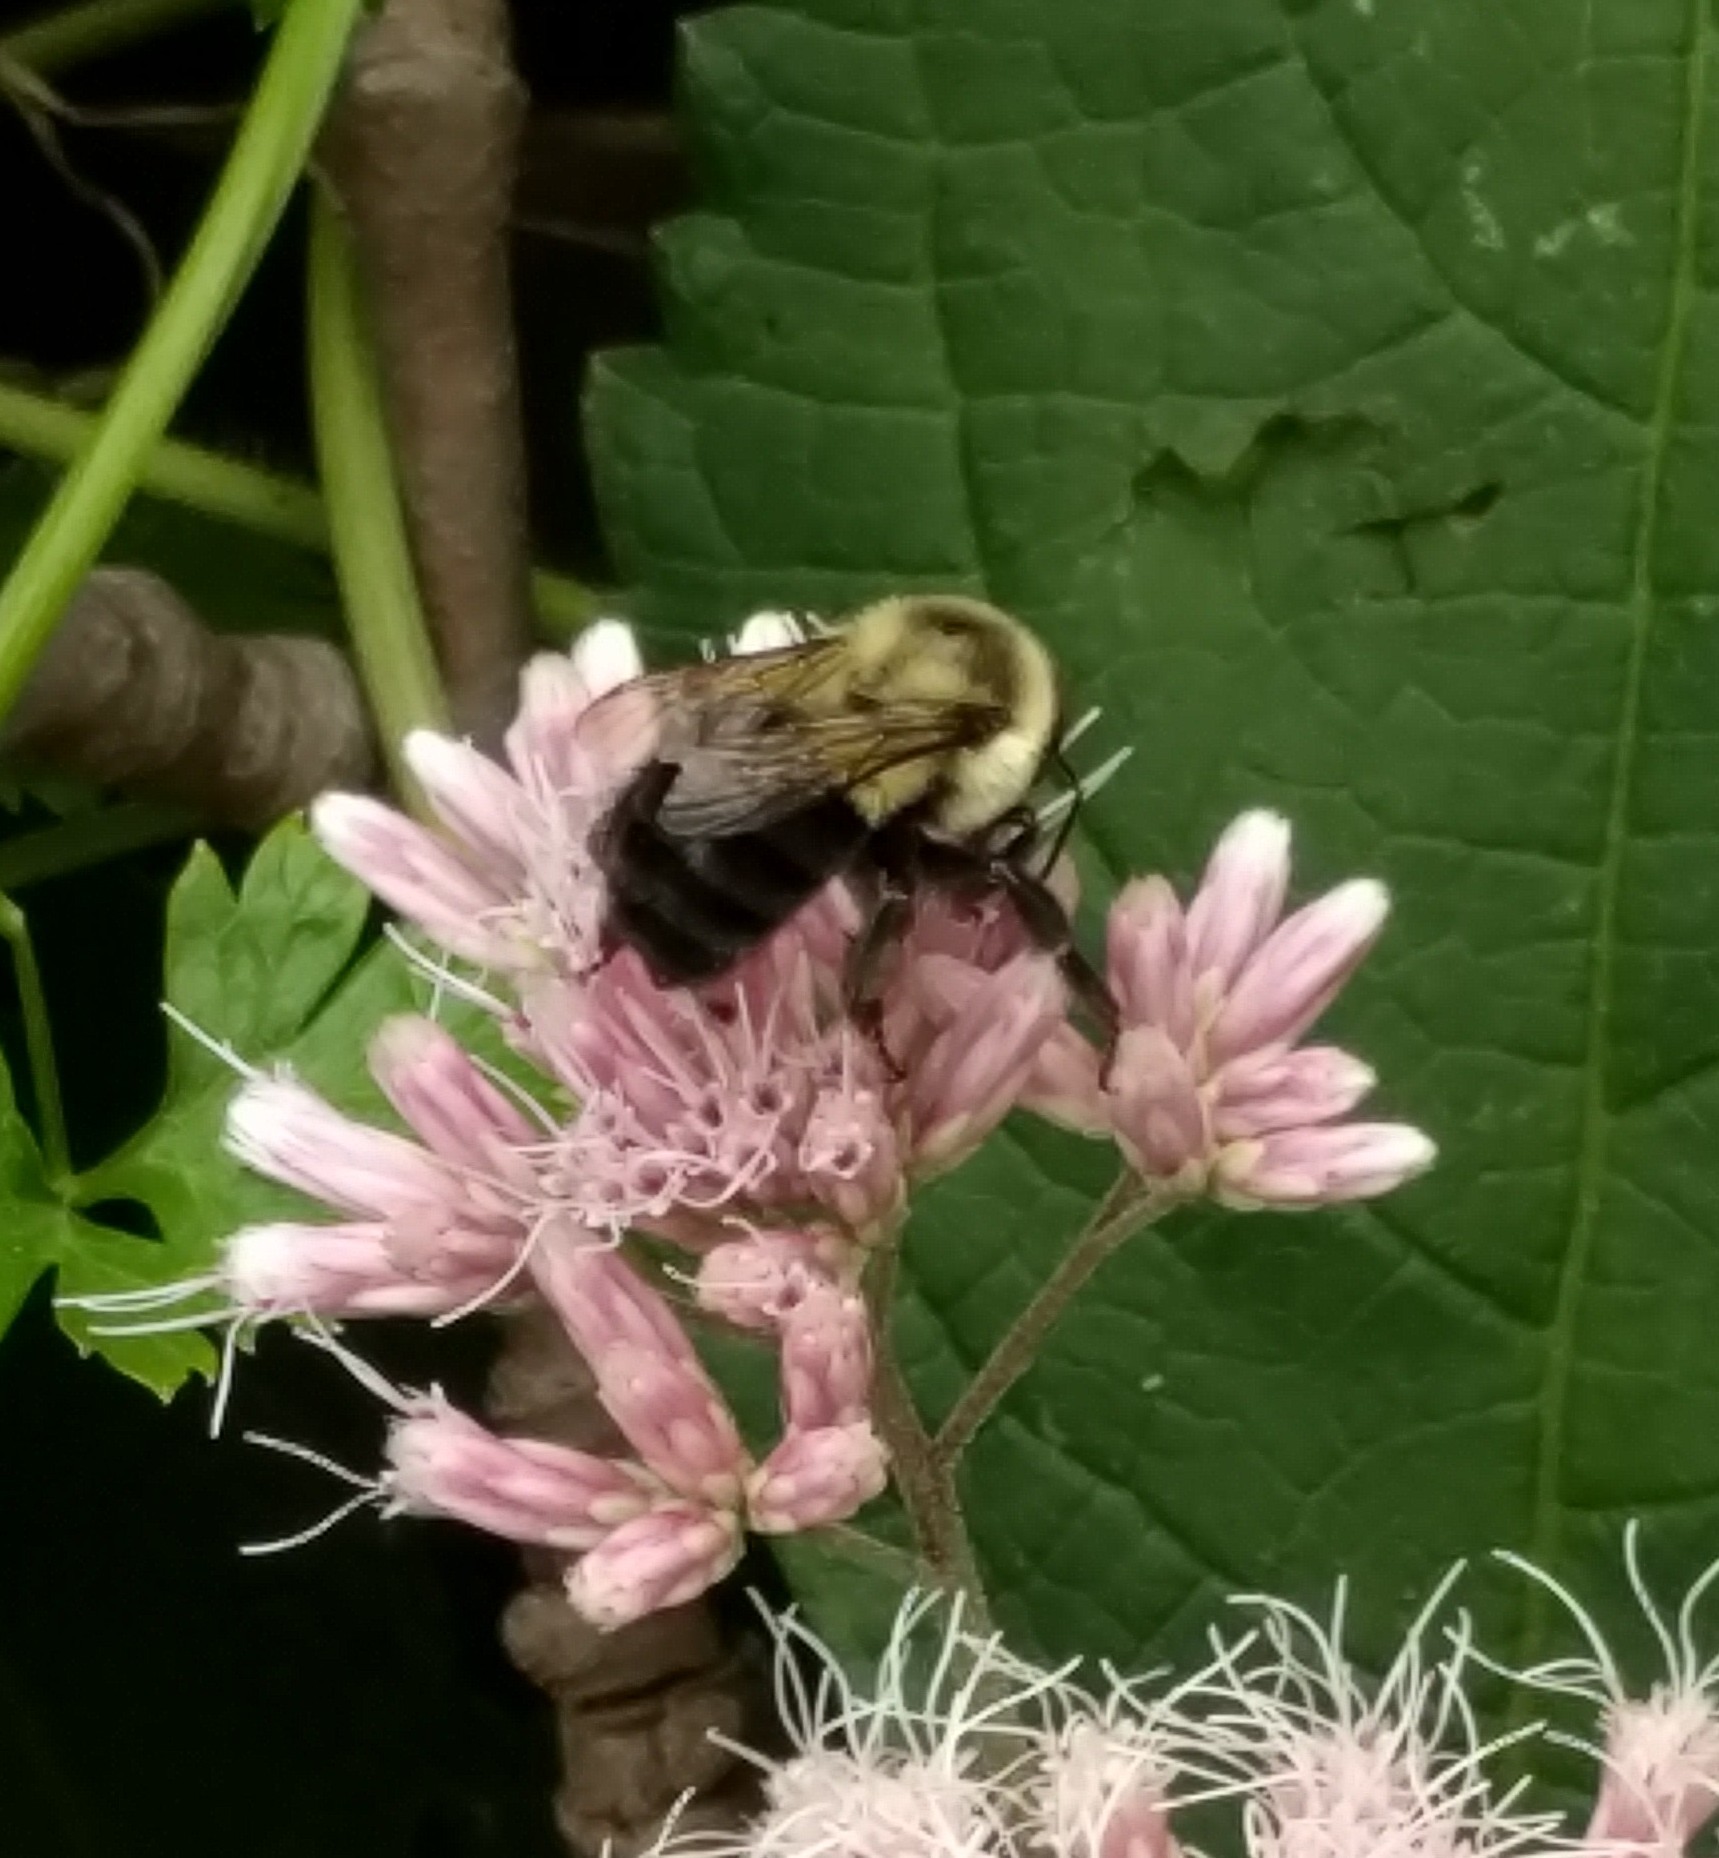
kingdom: Animalia
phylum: Arthropoda
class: Insecta
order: Hymenoptera
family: Apidae
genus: Bombus
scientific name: Bombus impatiens
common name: Common eastern bumble bee
